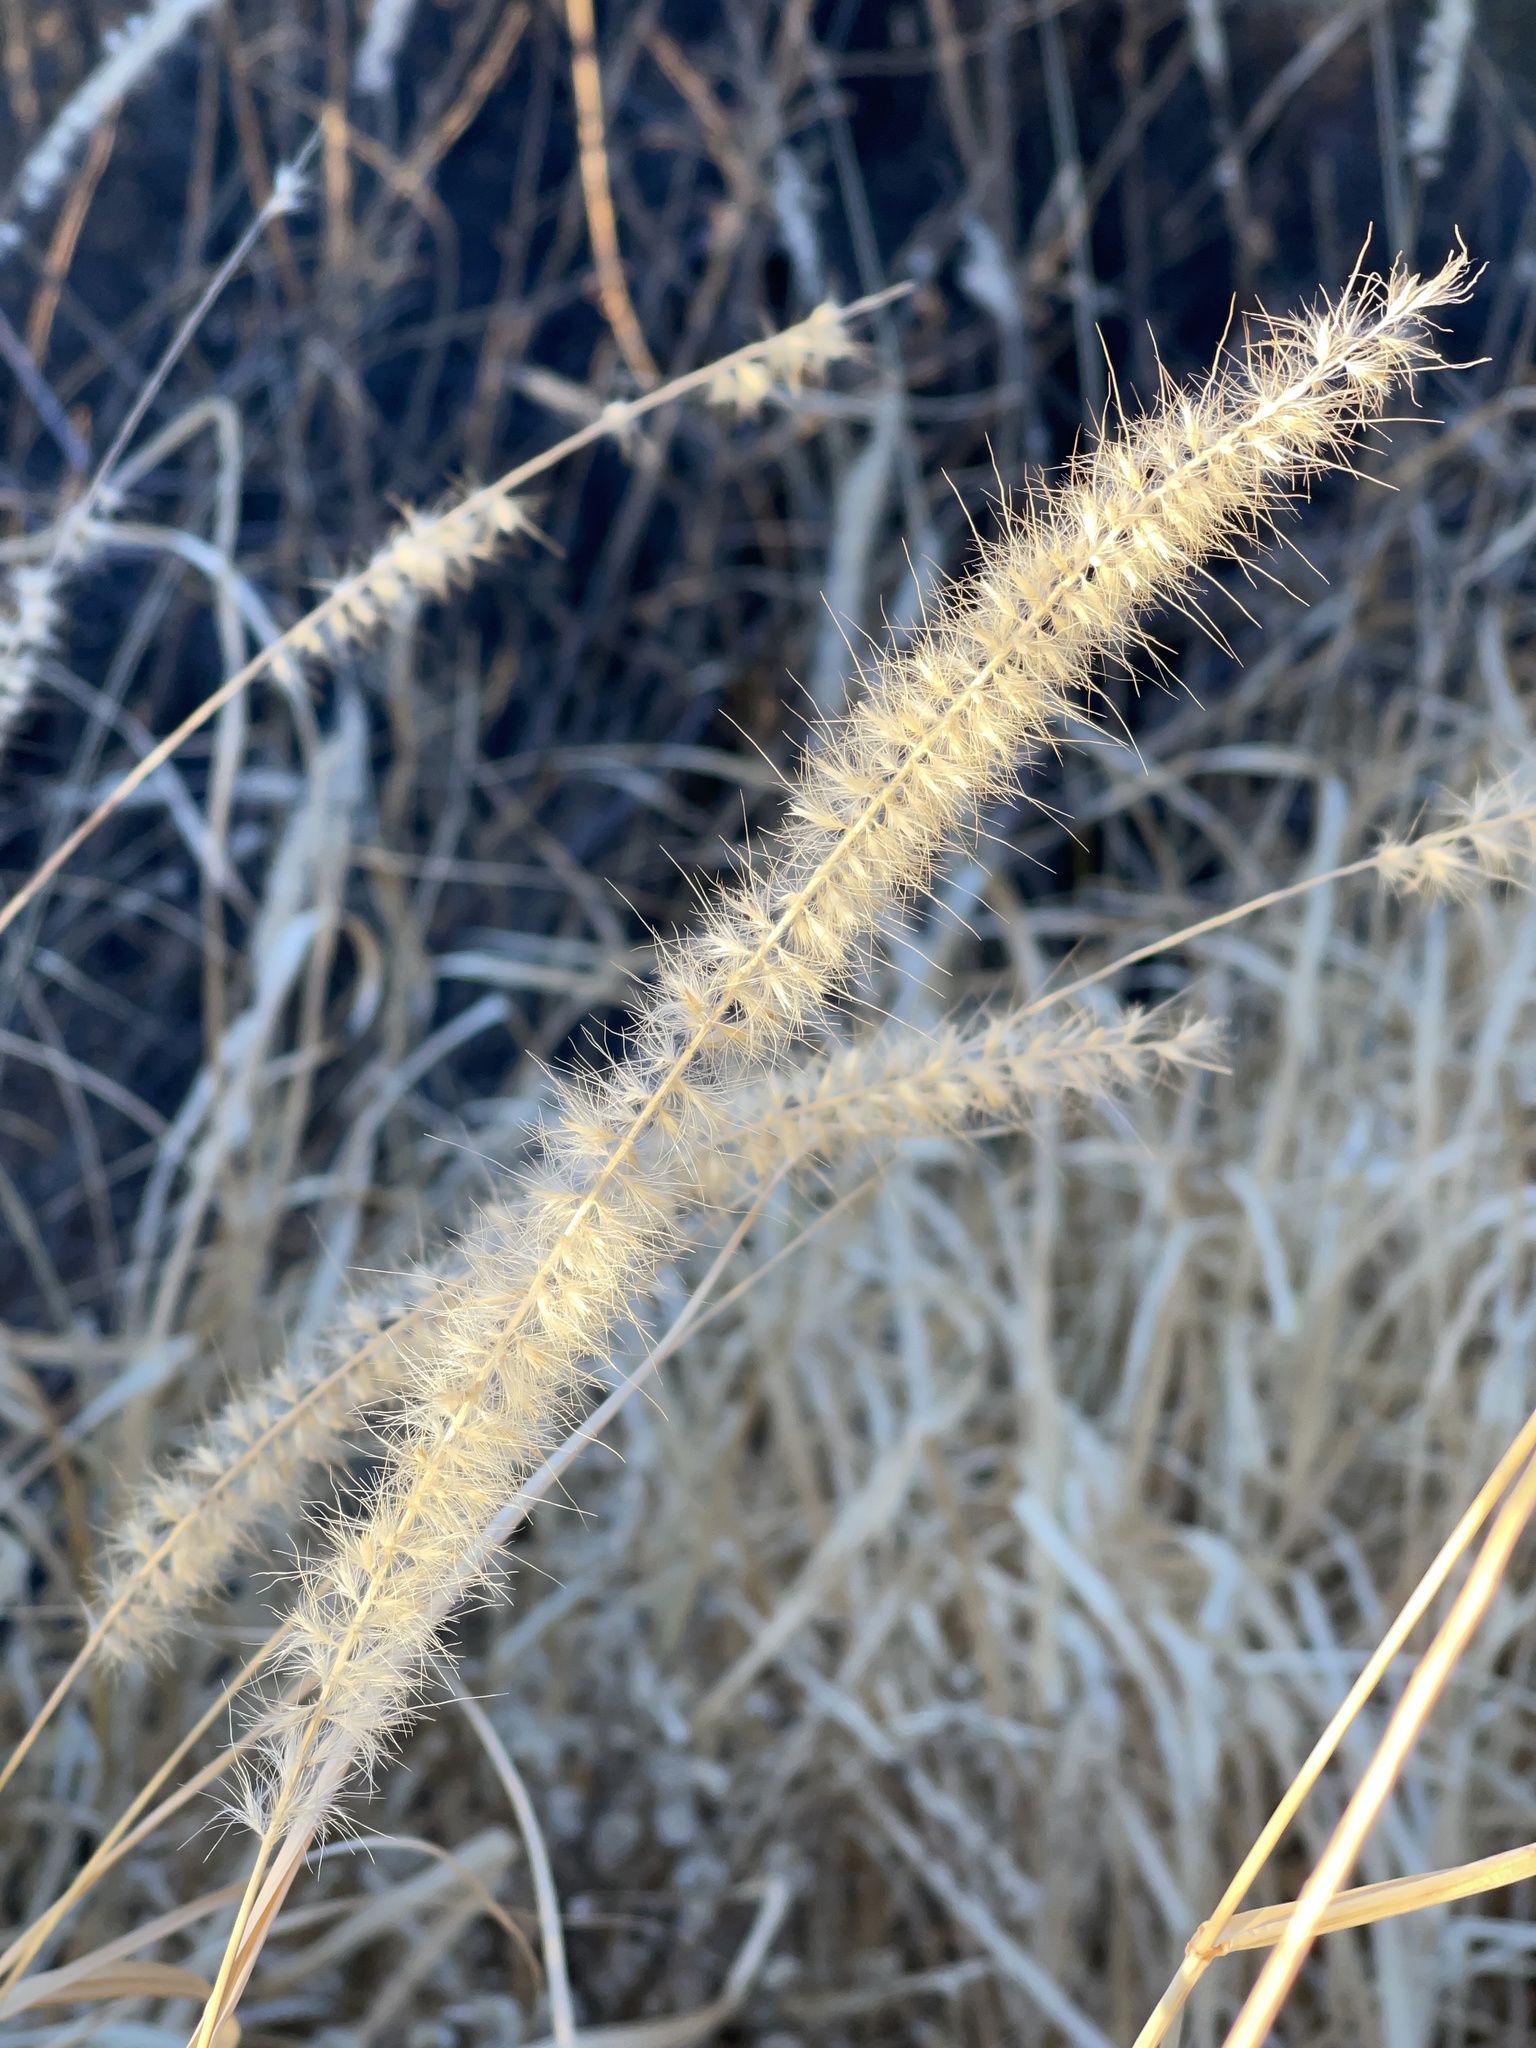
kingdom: Plantae
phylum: Tracheophyta
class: Liliopsida
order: Poales
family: Poaceae
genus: Cenchrus
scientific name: Cenchrus ciliaris
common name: Buffelgrass
